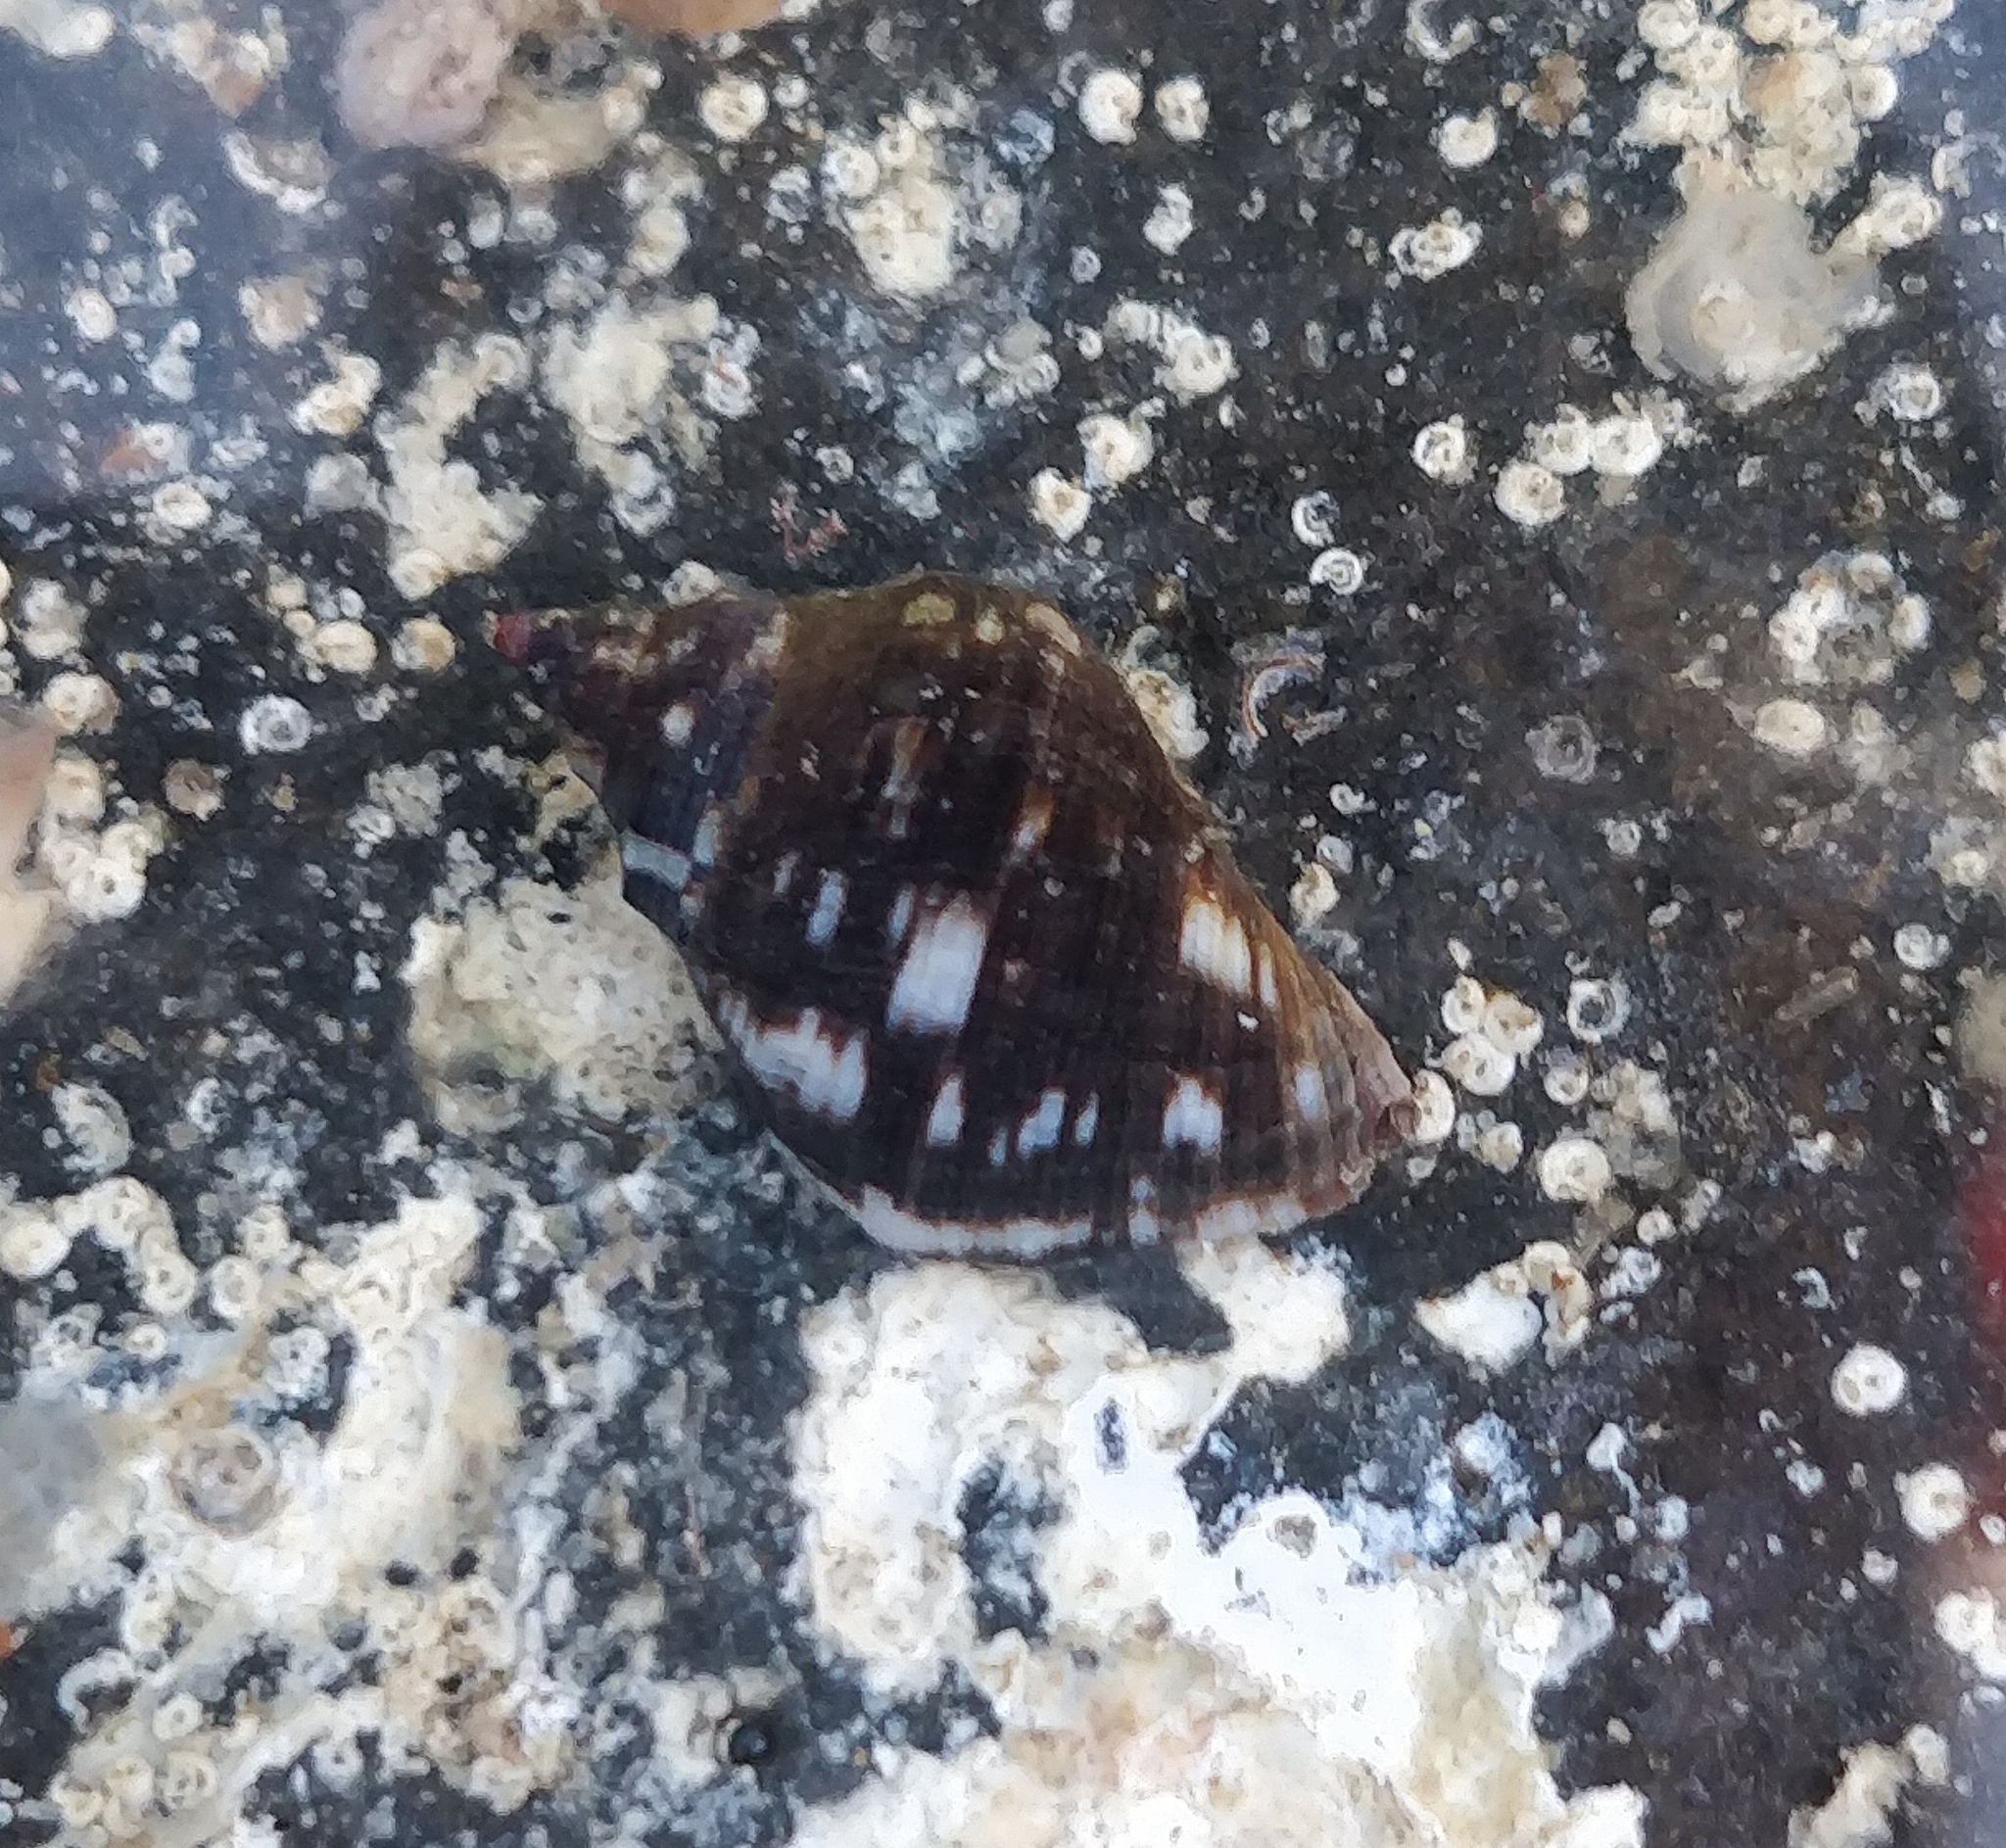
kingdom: Animalia
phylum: Mollusca
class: Gastropoda
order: Neogastropoda
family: Muricidae
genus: Stramonita
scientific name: Stramonita haemastoma
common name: Florida dog winkle
